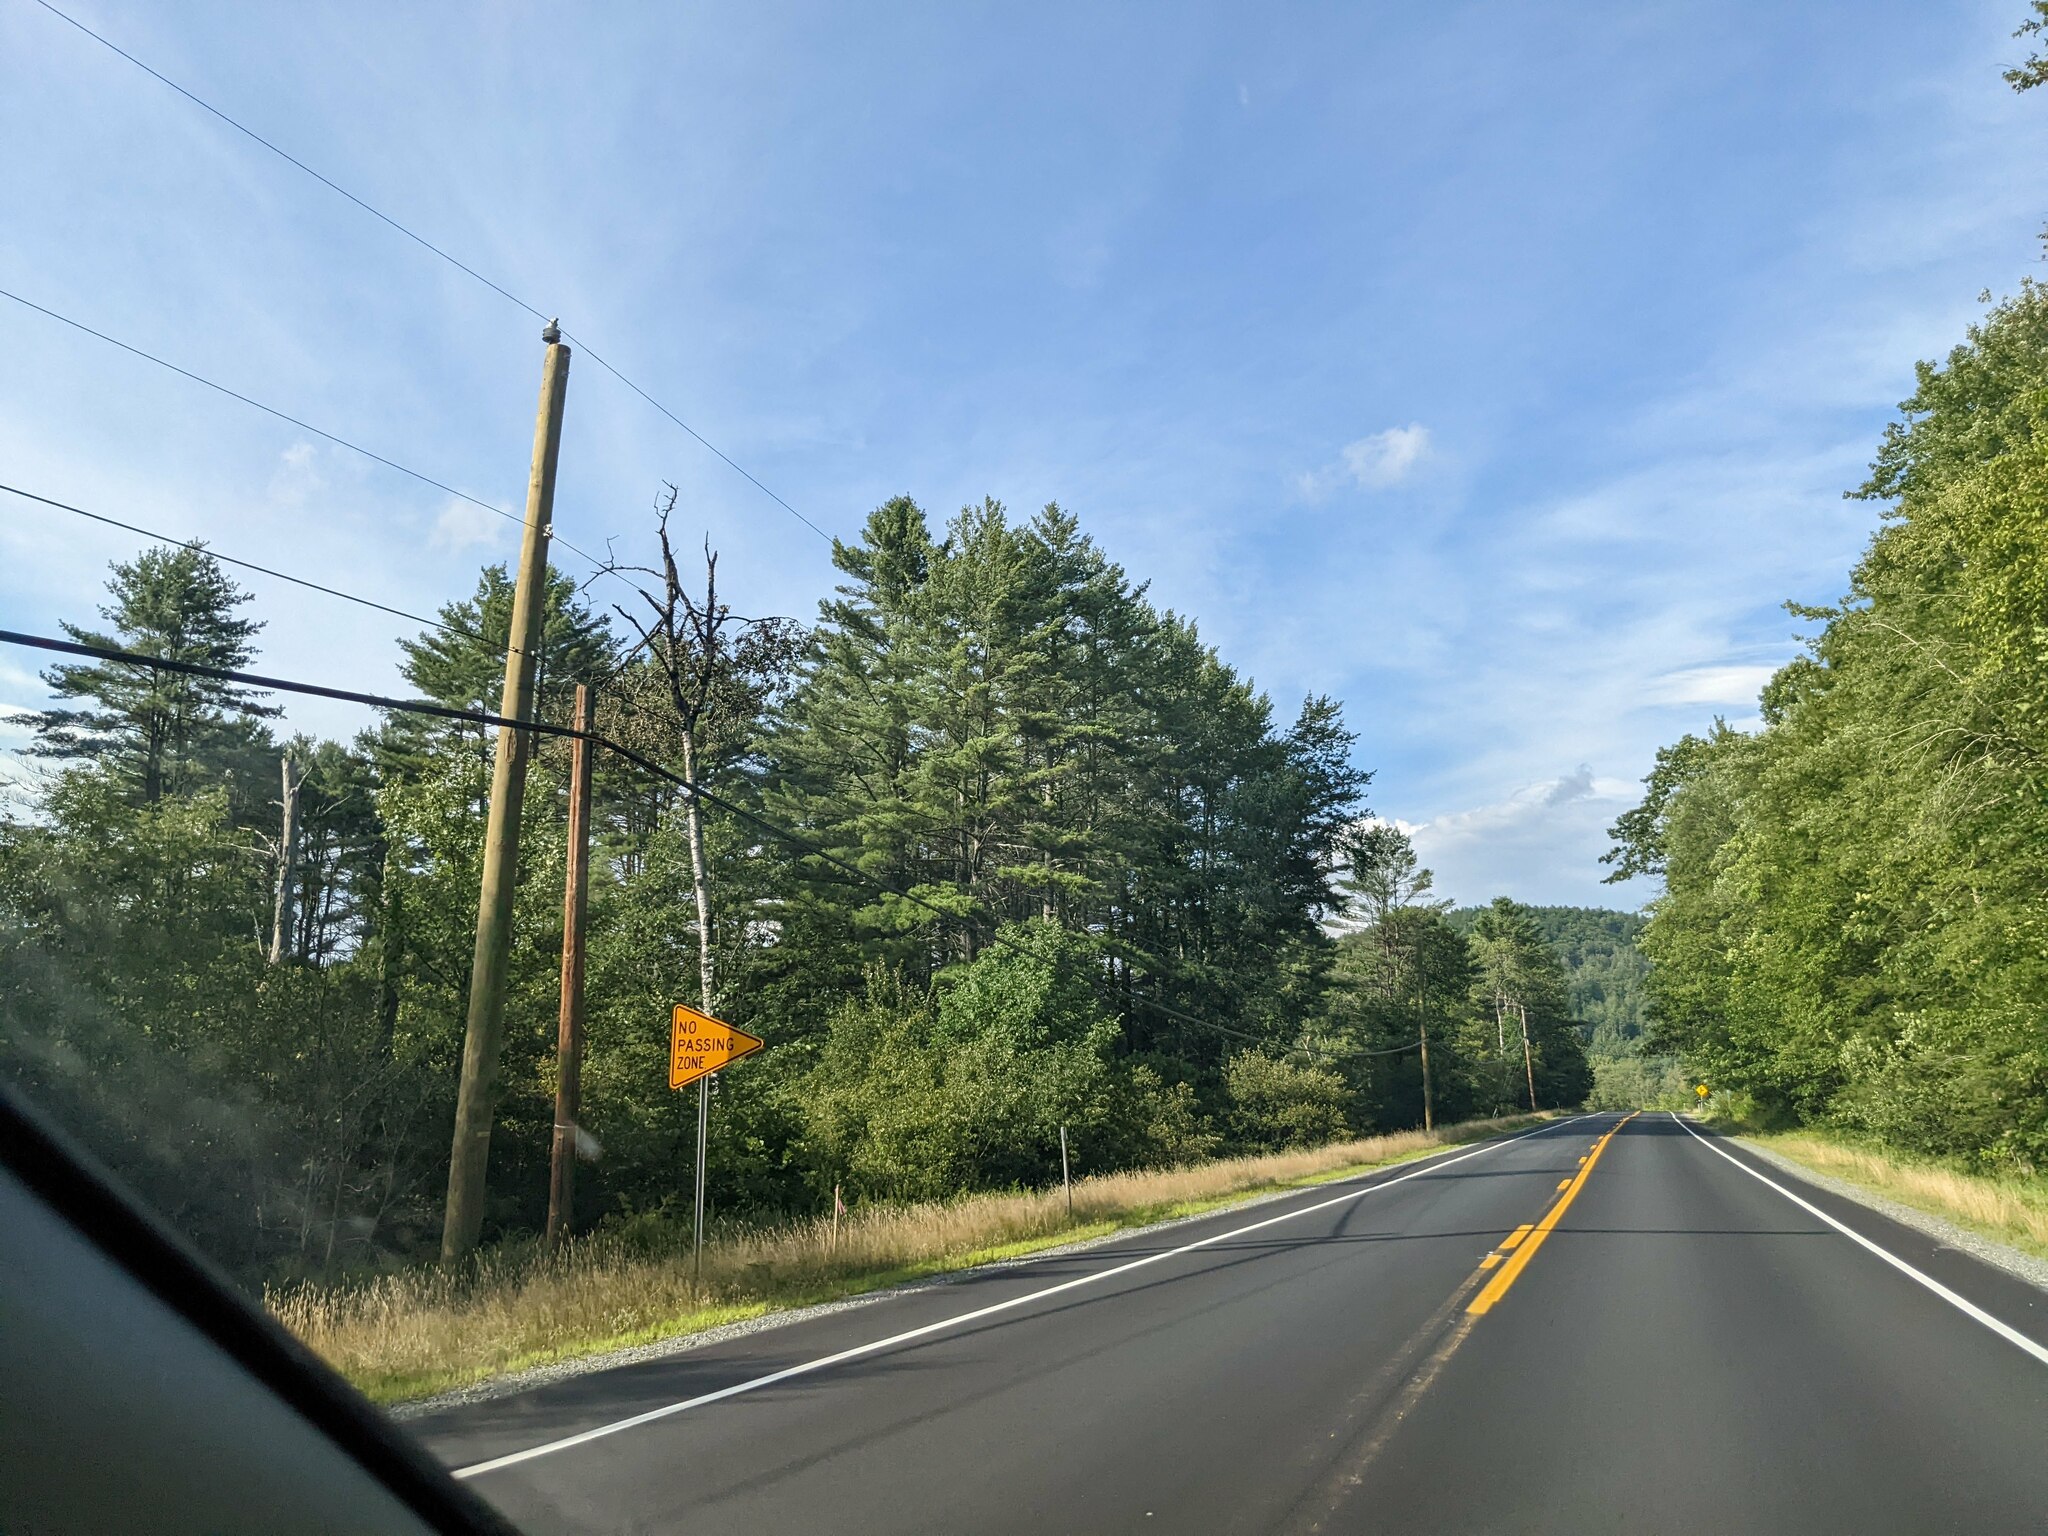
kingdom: Plantae
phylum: Tracheophyta
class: Pinopsida
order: Pinales
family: Pinaceae
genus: Pinus
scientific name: Pinus strobus
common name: Weymouth pine
